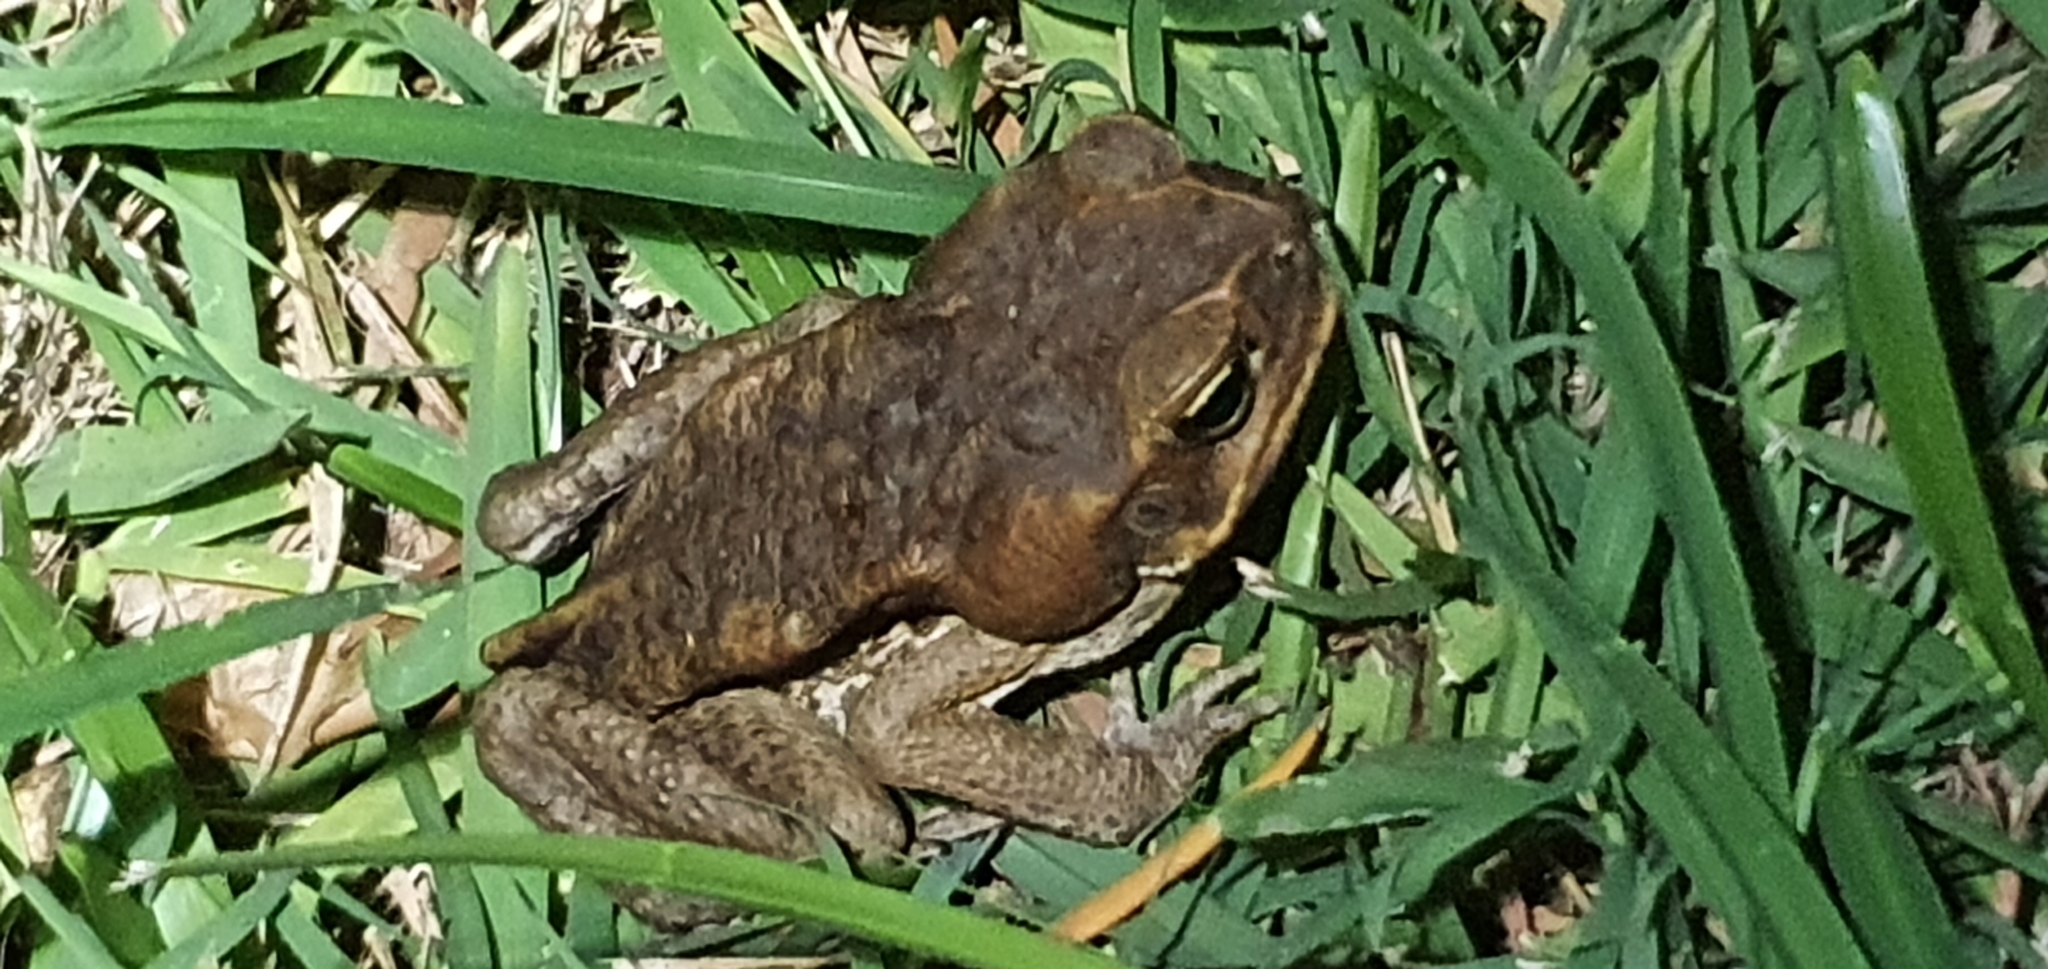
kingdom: Animalia
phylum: Chordata
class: Amphibia
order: Anura
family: Bufonidae
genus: Rhinella
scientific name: Rhinella marina
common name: Cane toad
